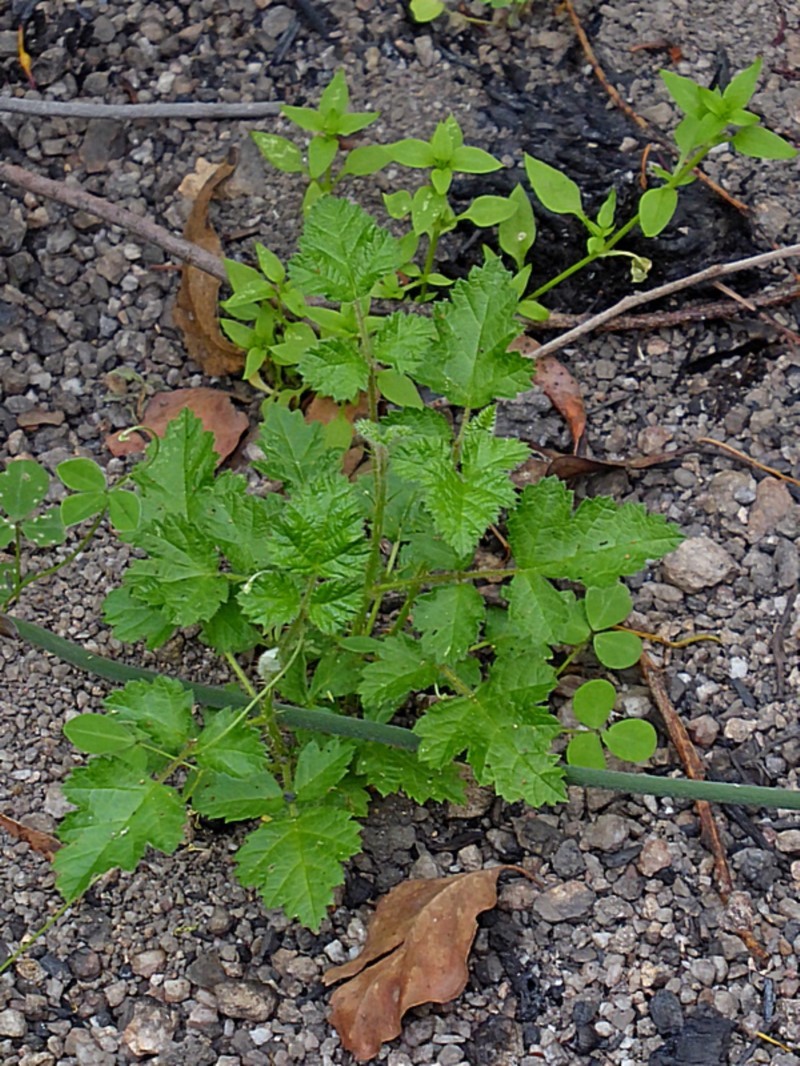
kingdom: Plantae
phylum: Tracheophyta
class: Magnoliopsida
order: Rosales
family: Rosaceae
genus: Rubus
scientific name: Rubus parvifolius
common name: Threeleaf blackberry
